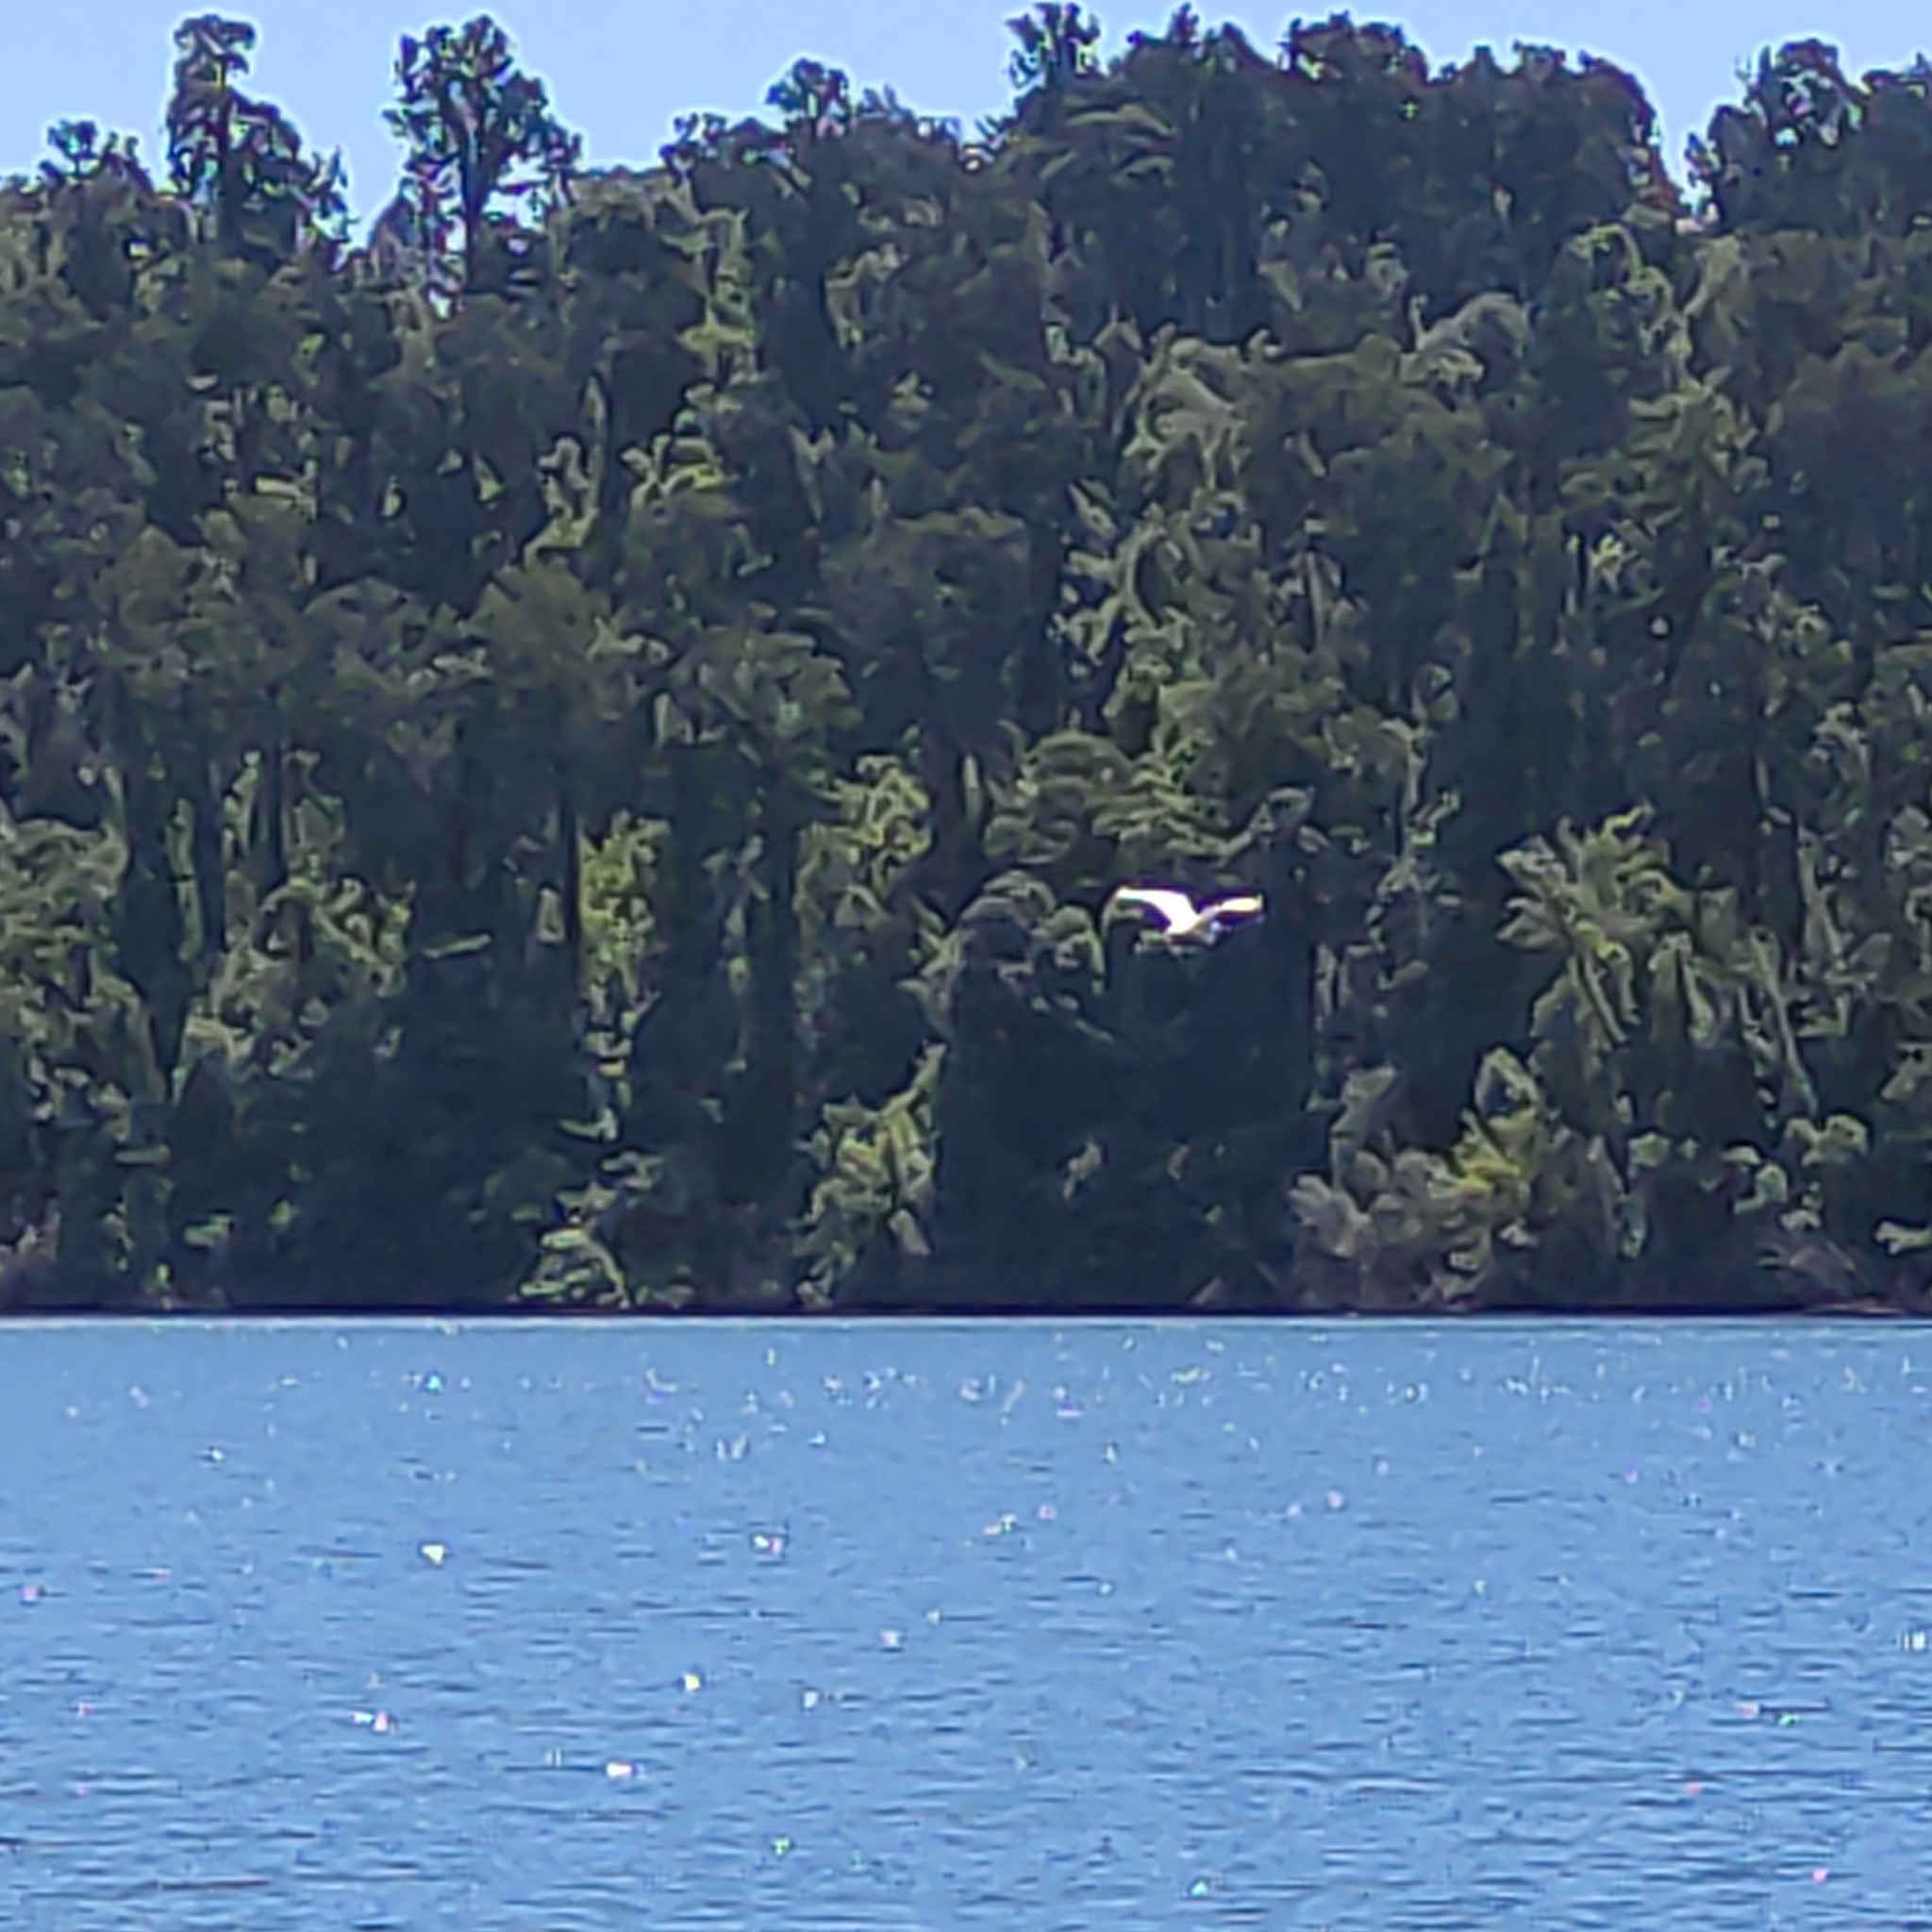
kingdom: Animalia
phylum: Chordata
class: Aves
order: Pelecaniformes
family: Ardeidae
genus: Ardea
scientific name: Ardea alba
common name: Great egret
